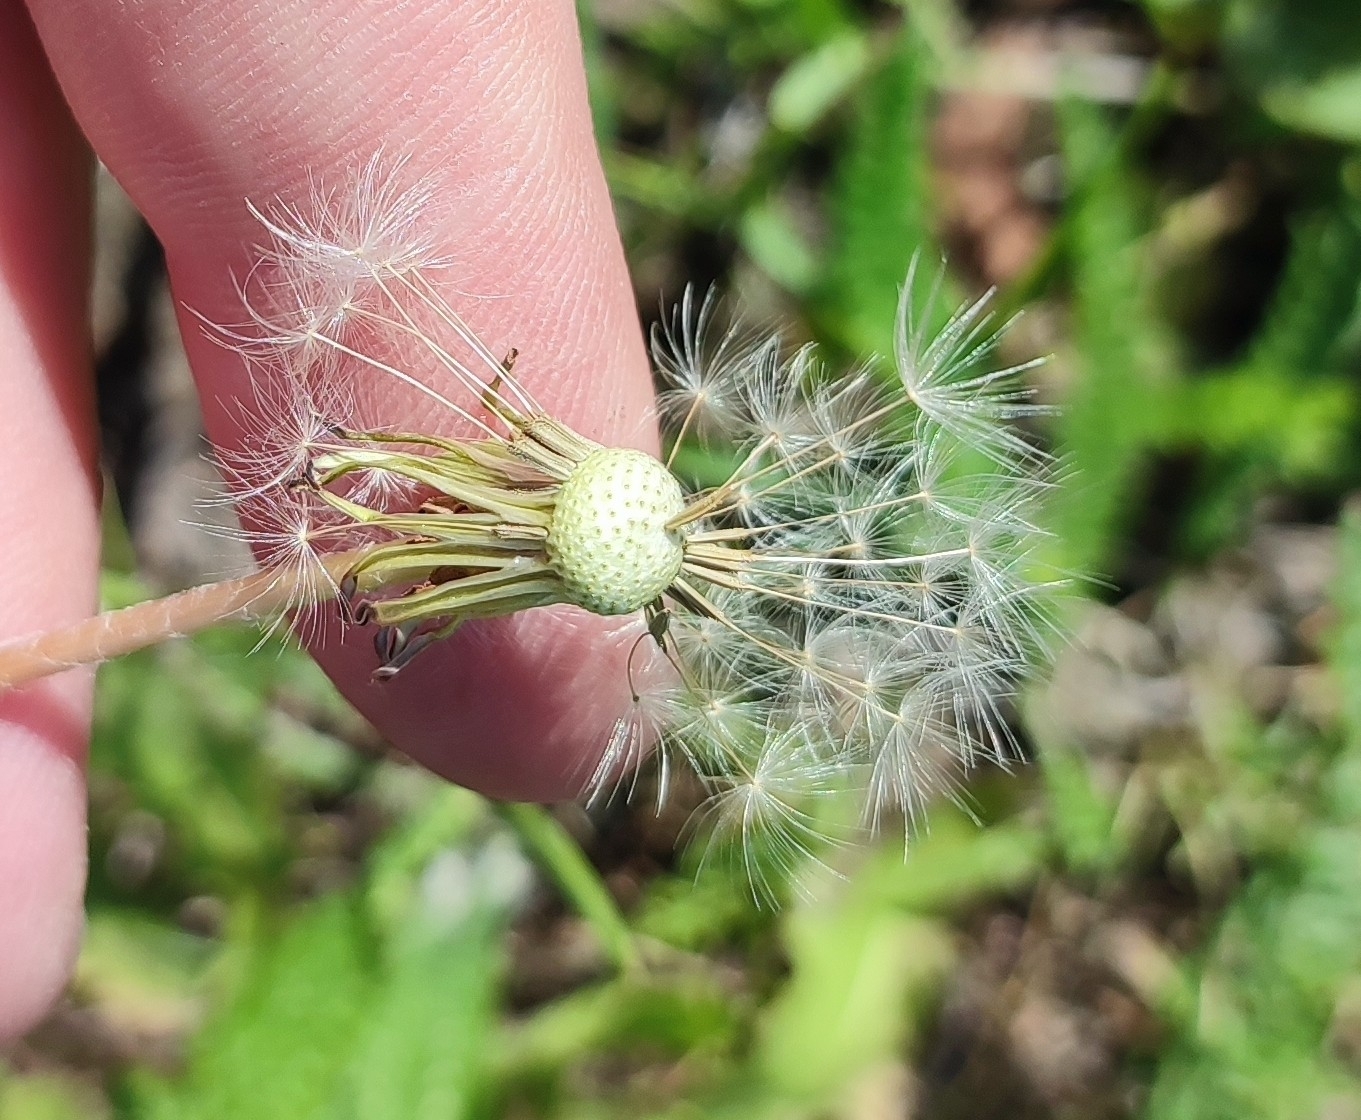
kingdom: Plantae
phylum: Tracheophyta
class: Magnoliopsida
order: Asterales
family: Asteraceae
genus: Taraxacum
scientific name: Taraxacum officinale
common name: Common dandelion
